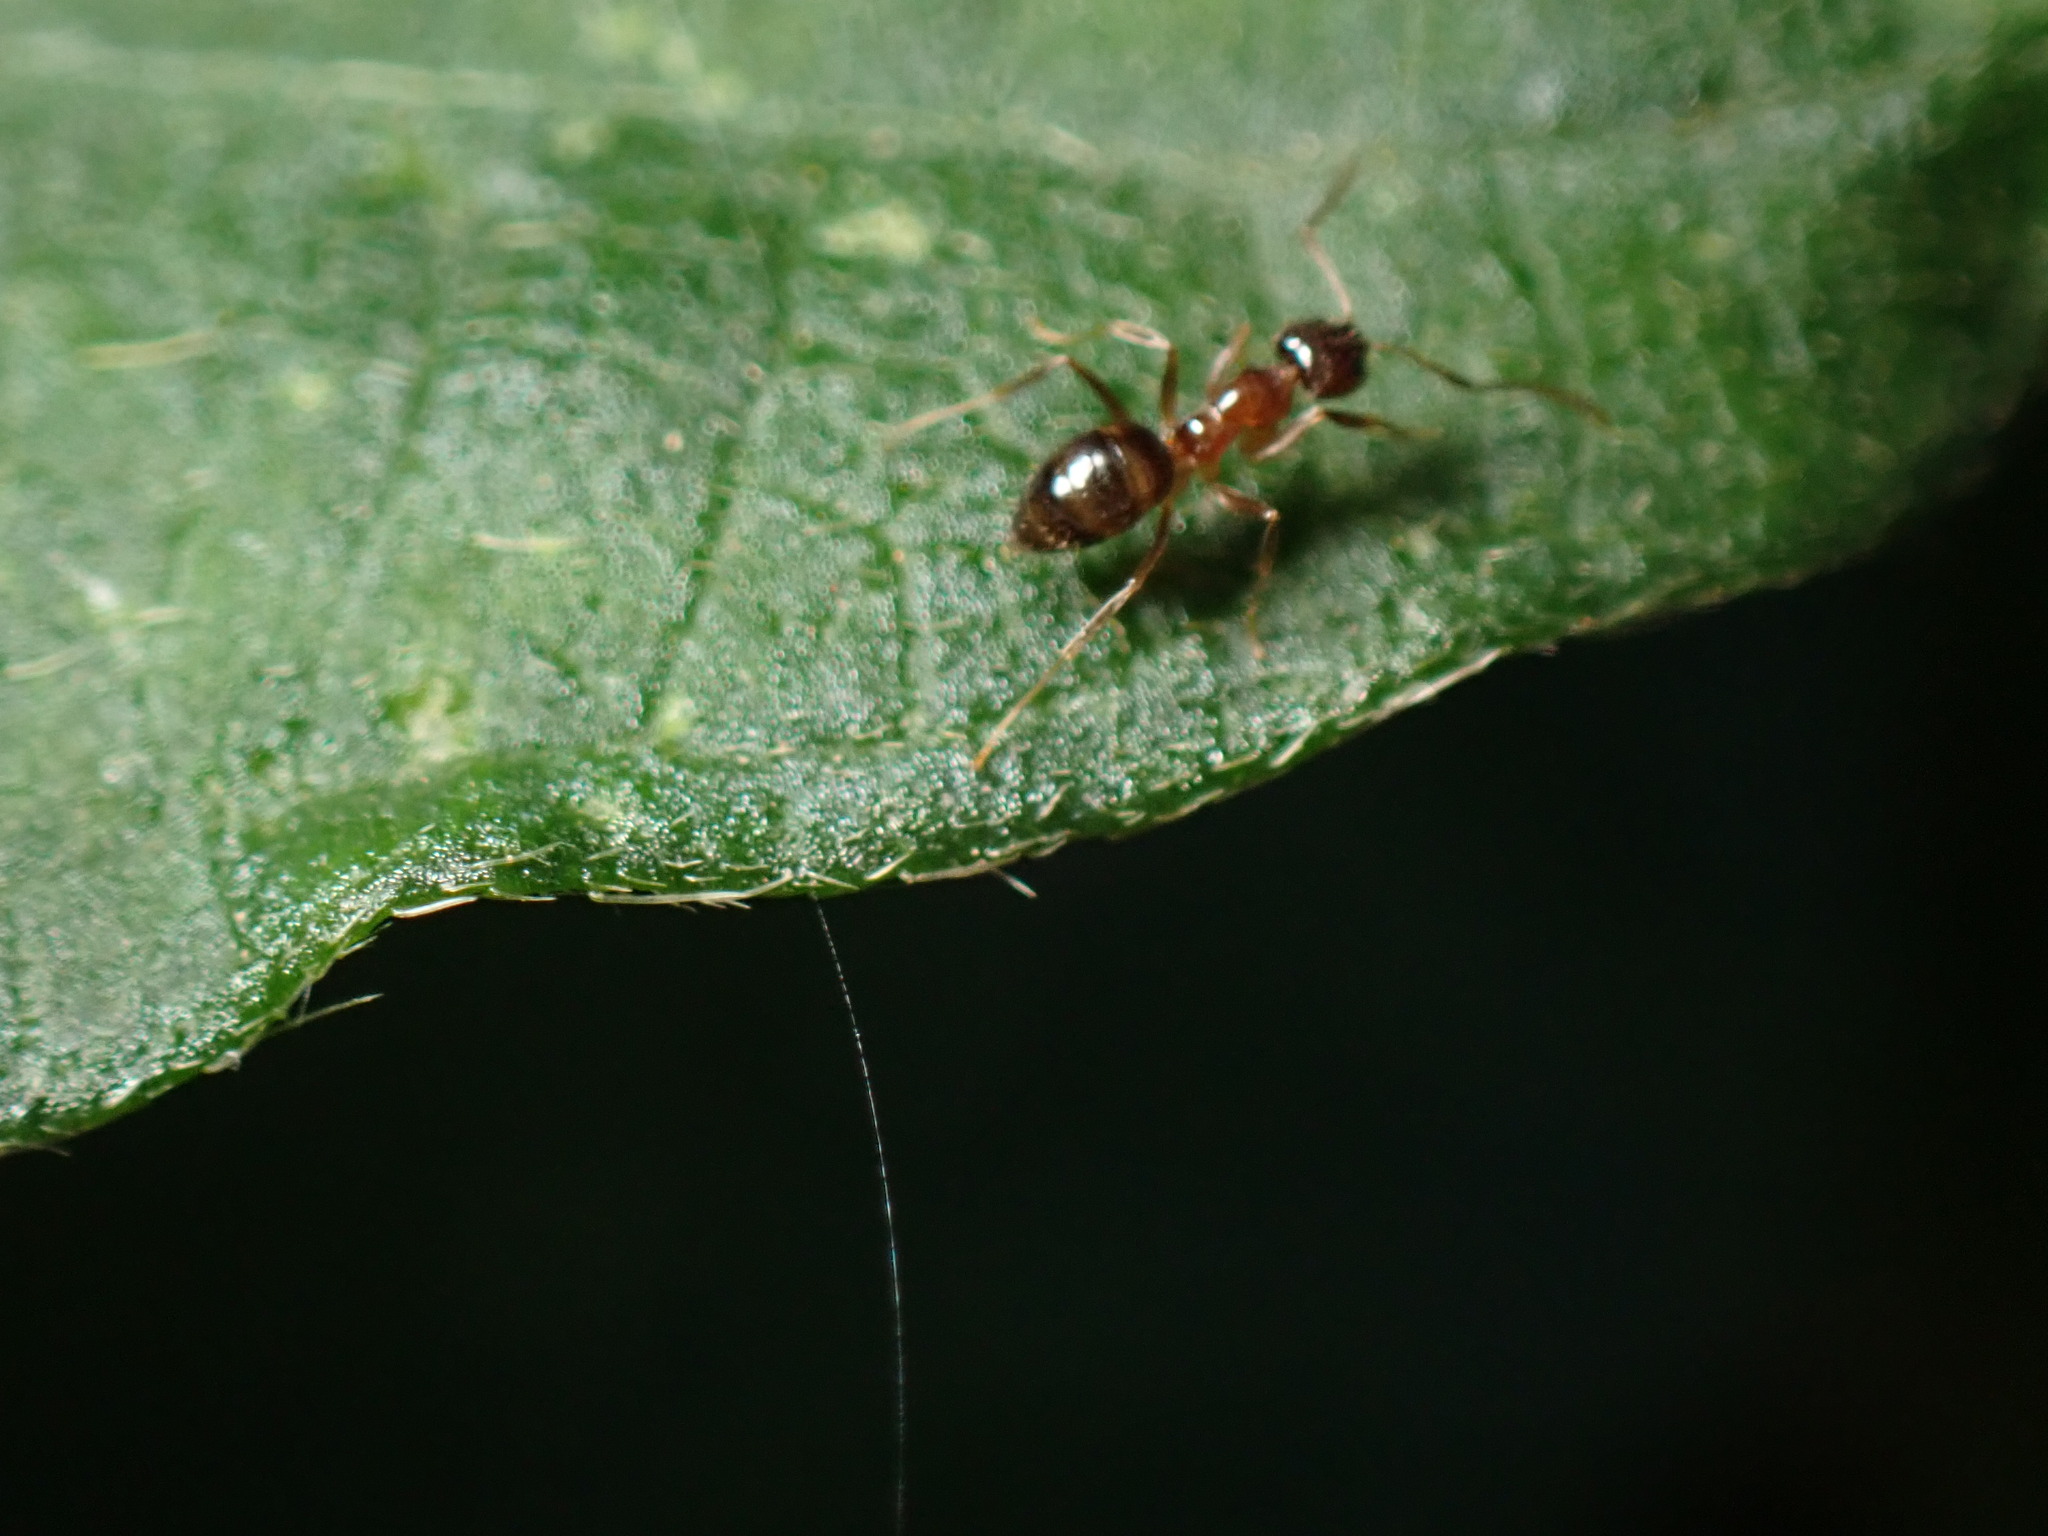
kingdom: Animalia
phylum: Arthropoda
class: Insecta
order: Hymenoptera
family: Formicidae
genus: Paratrechina
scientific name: Paratrechina jaegerskioeldi
